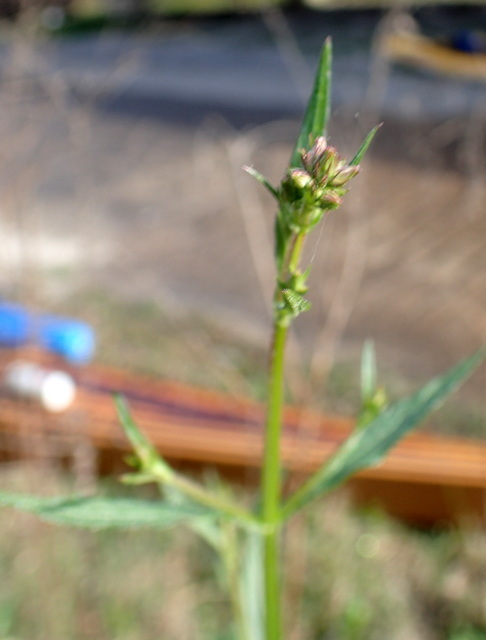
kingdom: Plantae
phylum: Tracheophyta
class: Magnoliopsida
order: Lamiales
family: Verbenaceae
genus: Verbena
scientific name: Verbena brasiliensis
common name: Brazilian vervain
